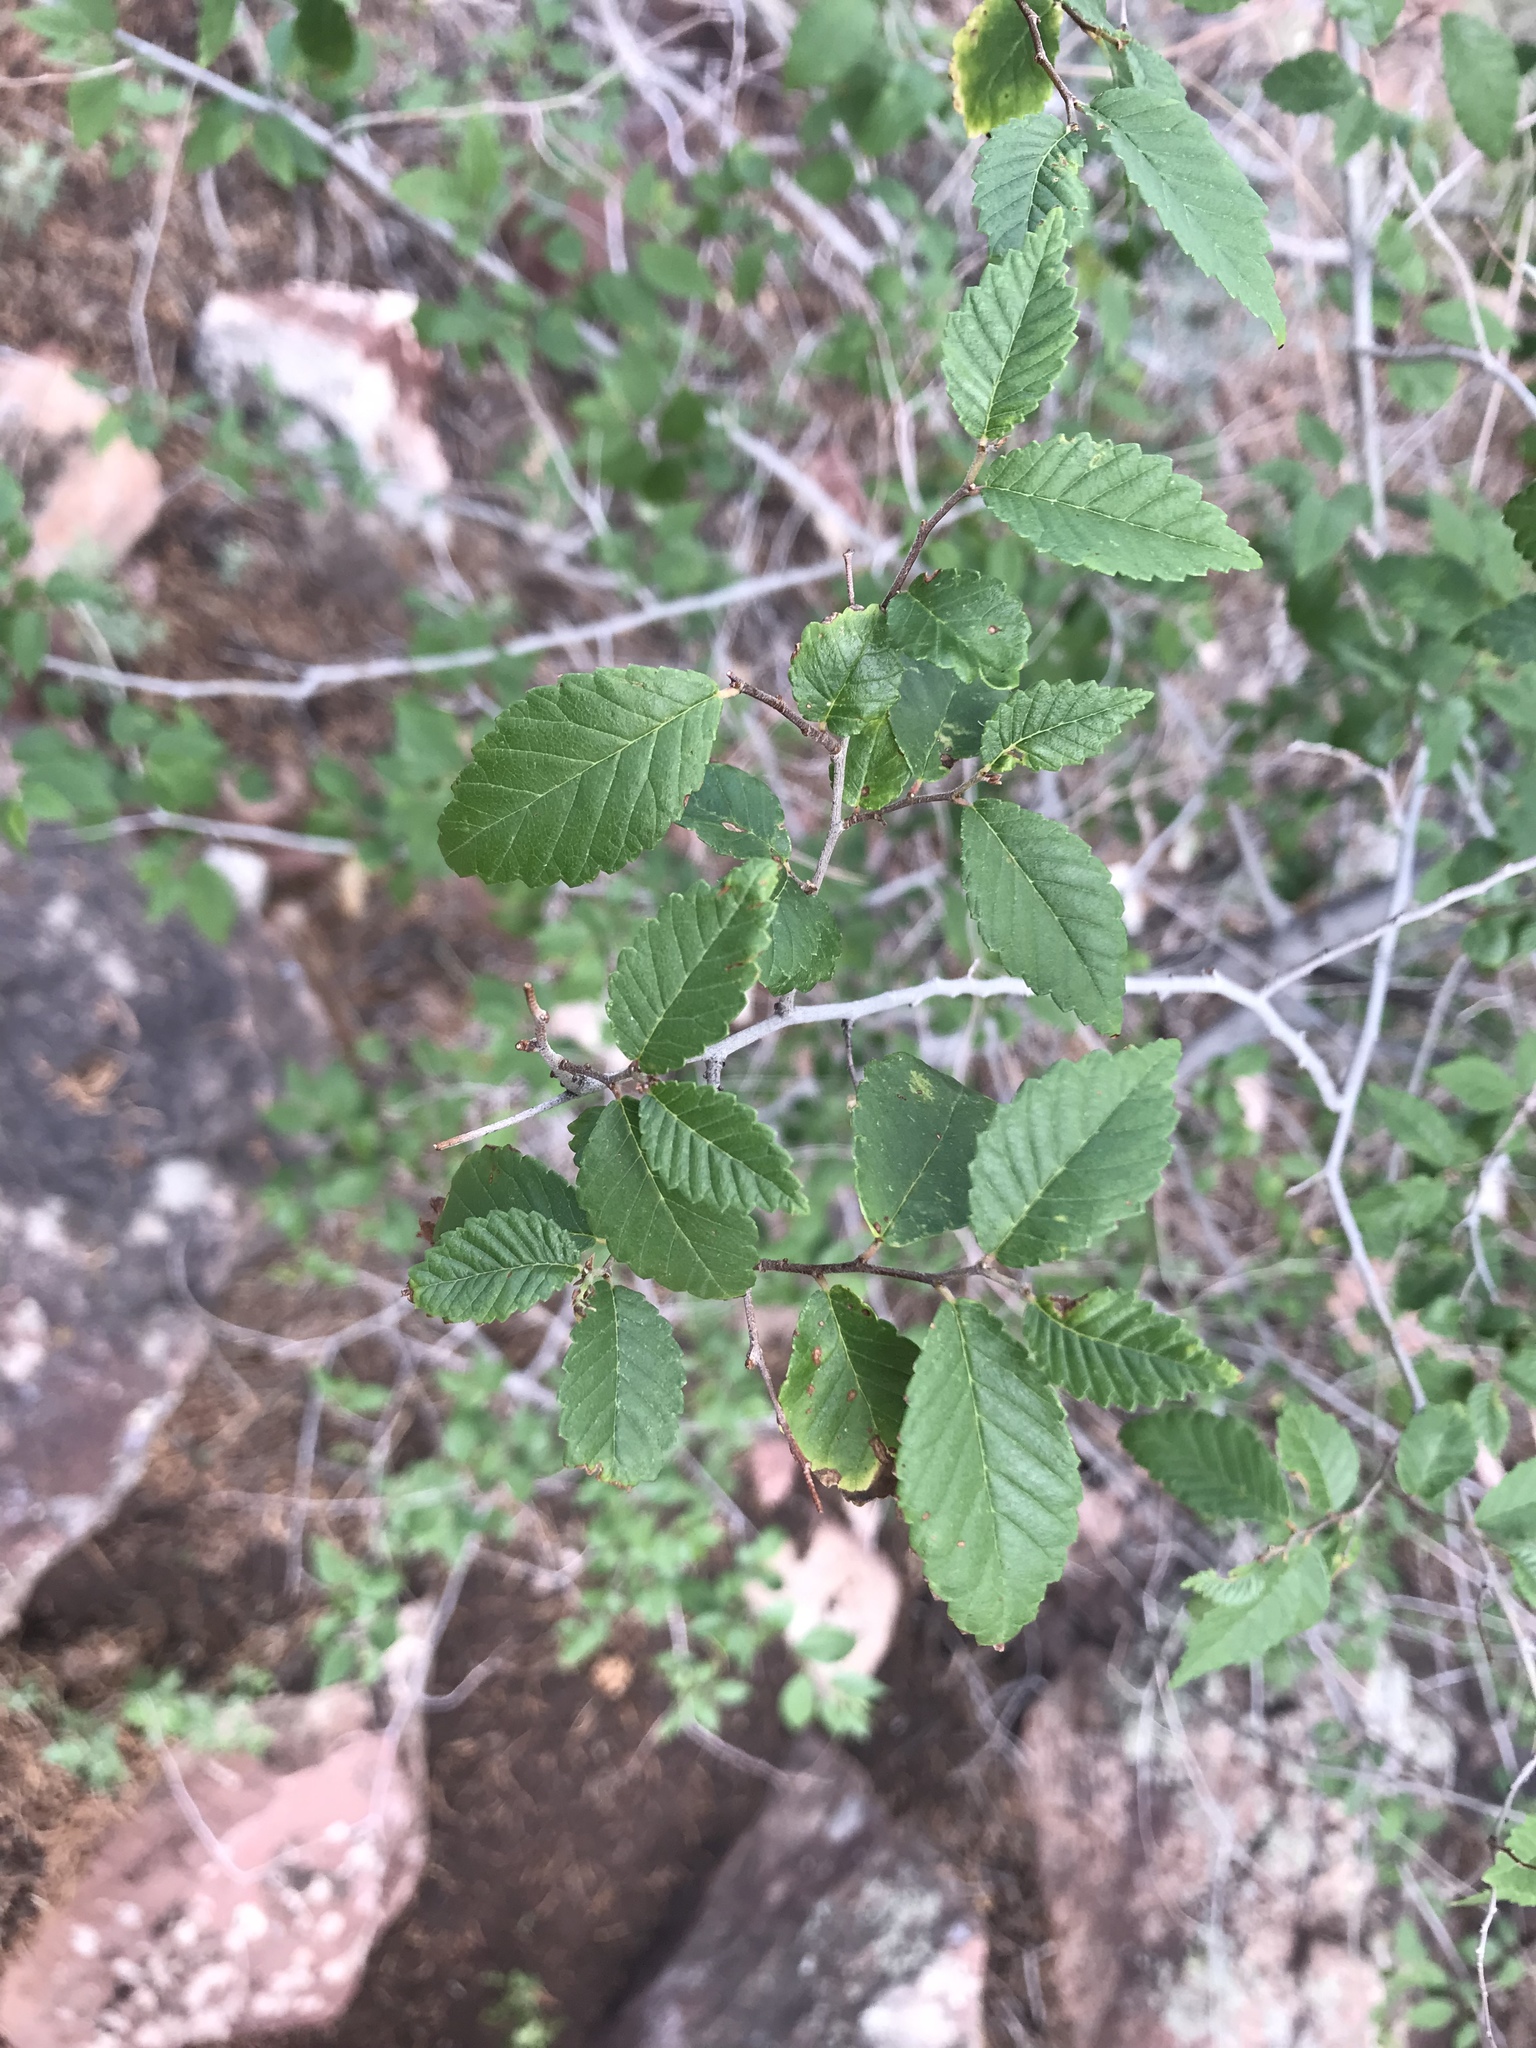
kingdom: Plantae
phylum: Tracheophyta
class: Magnoliopsida
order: Rosales
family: Ulmaceae
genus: Ulmus
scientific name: Ulmus pumila
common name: Siberian elm
